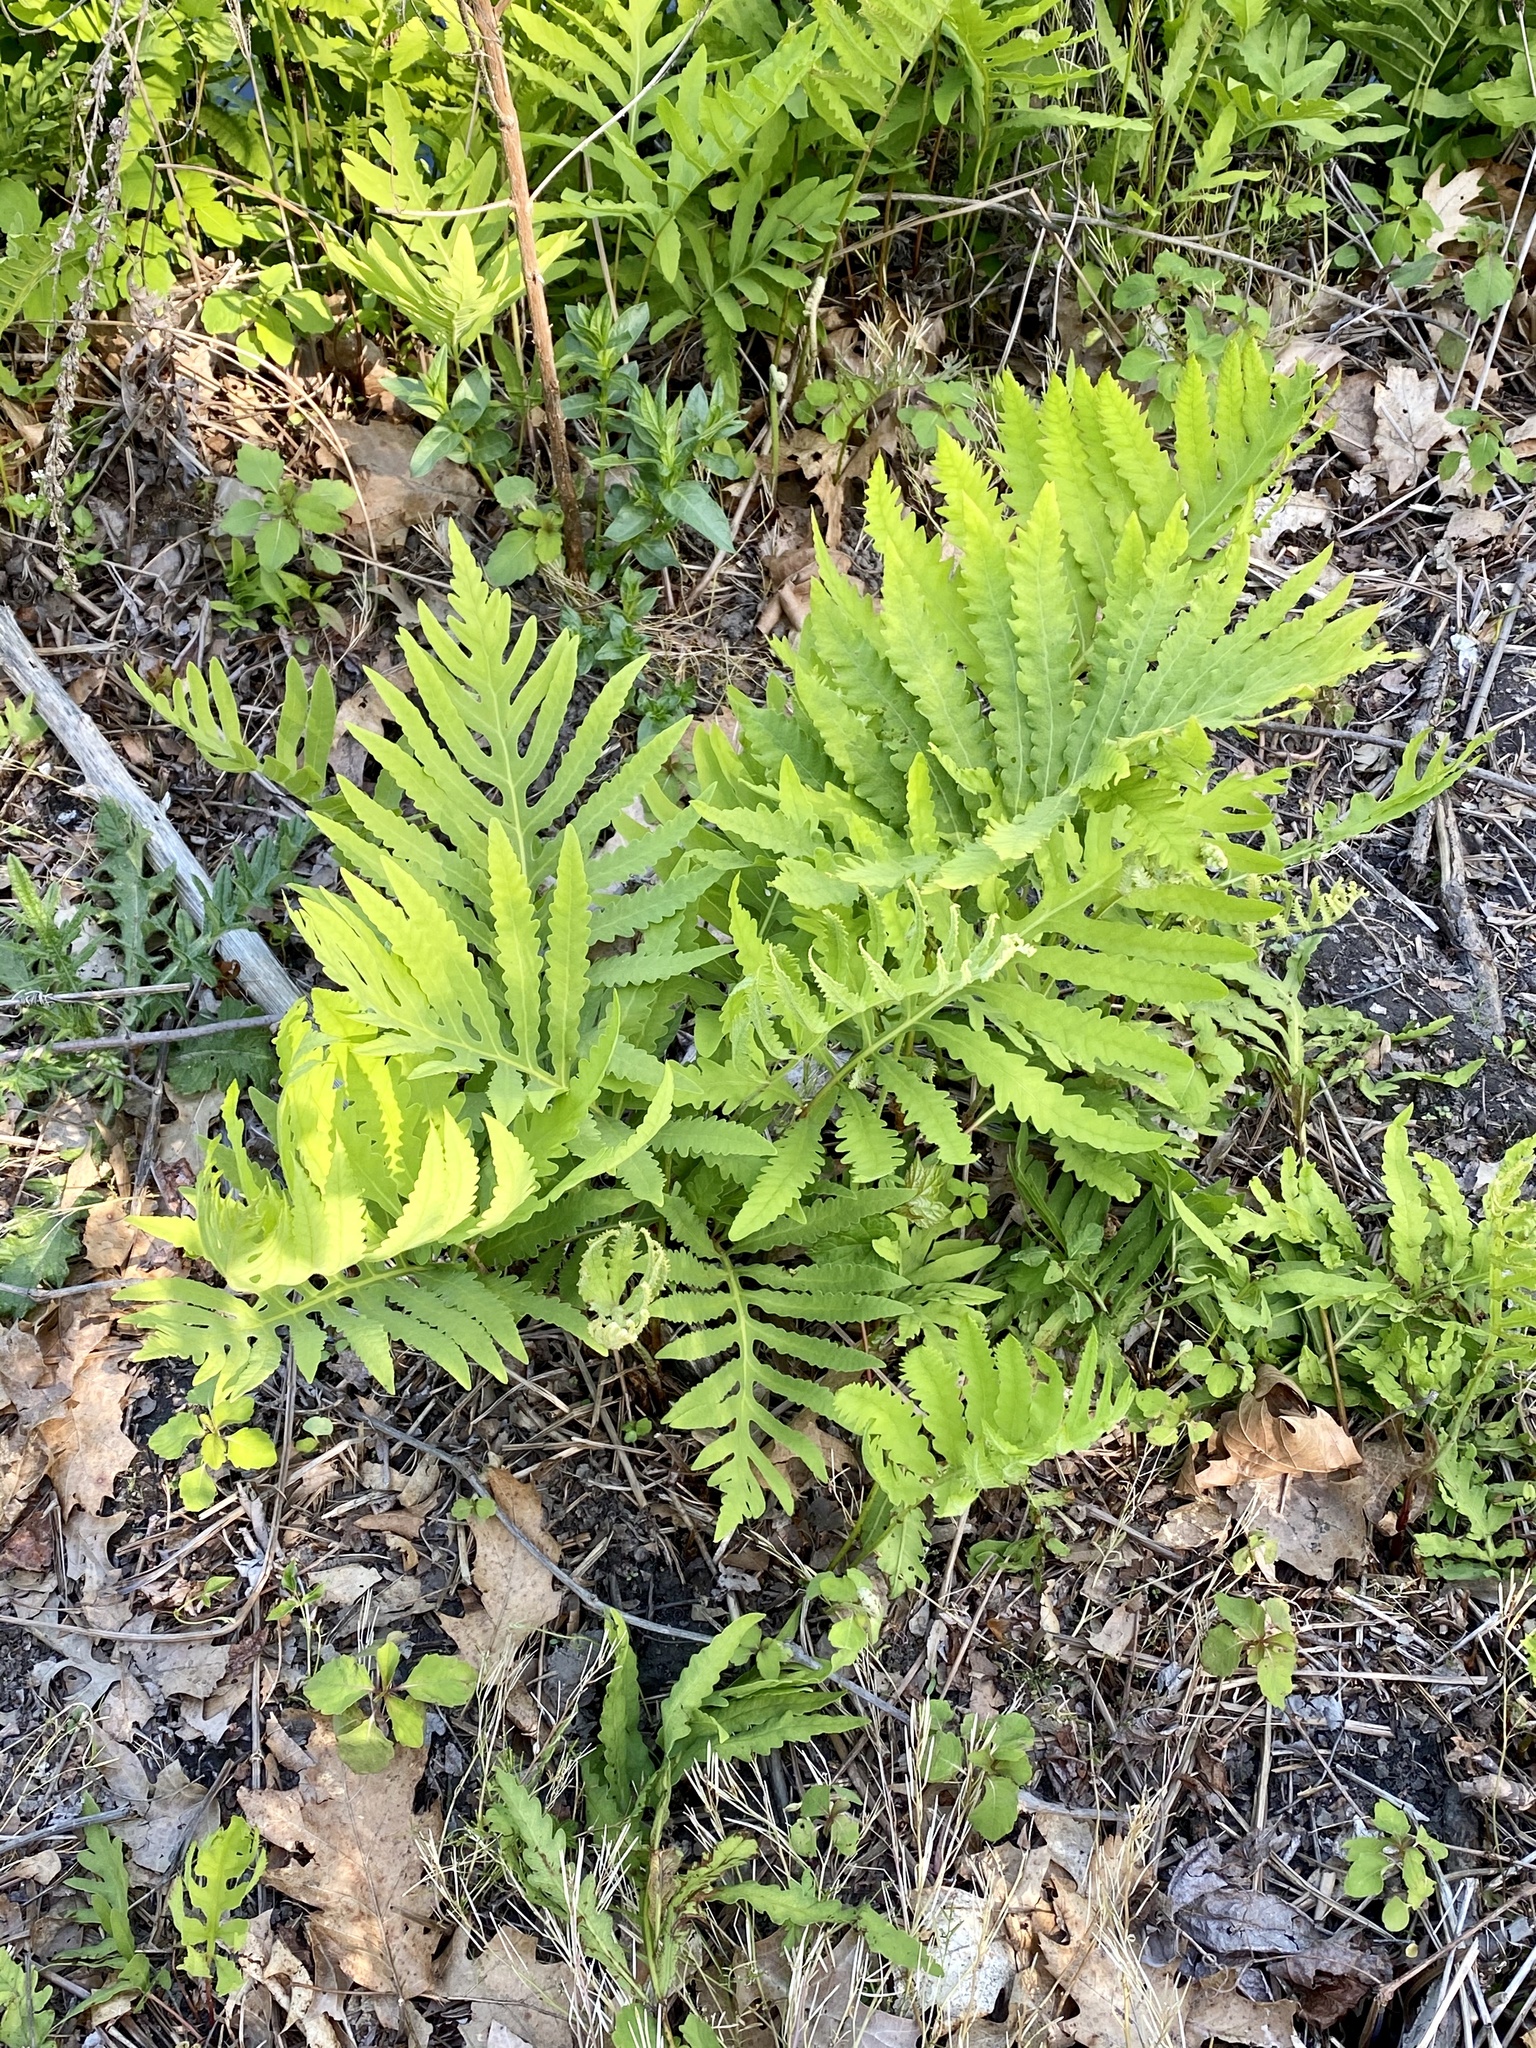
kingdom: Plantae
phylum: Tracheophyta
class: Polypodiopsida
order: Polypodiales
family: Onocleaceae
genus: Onoclea
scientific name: Onoclea sensibilis
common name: Sensitive fern
